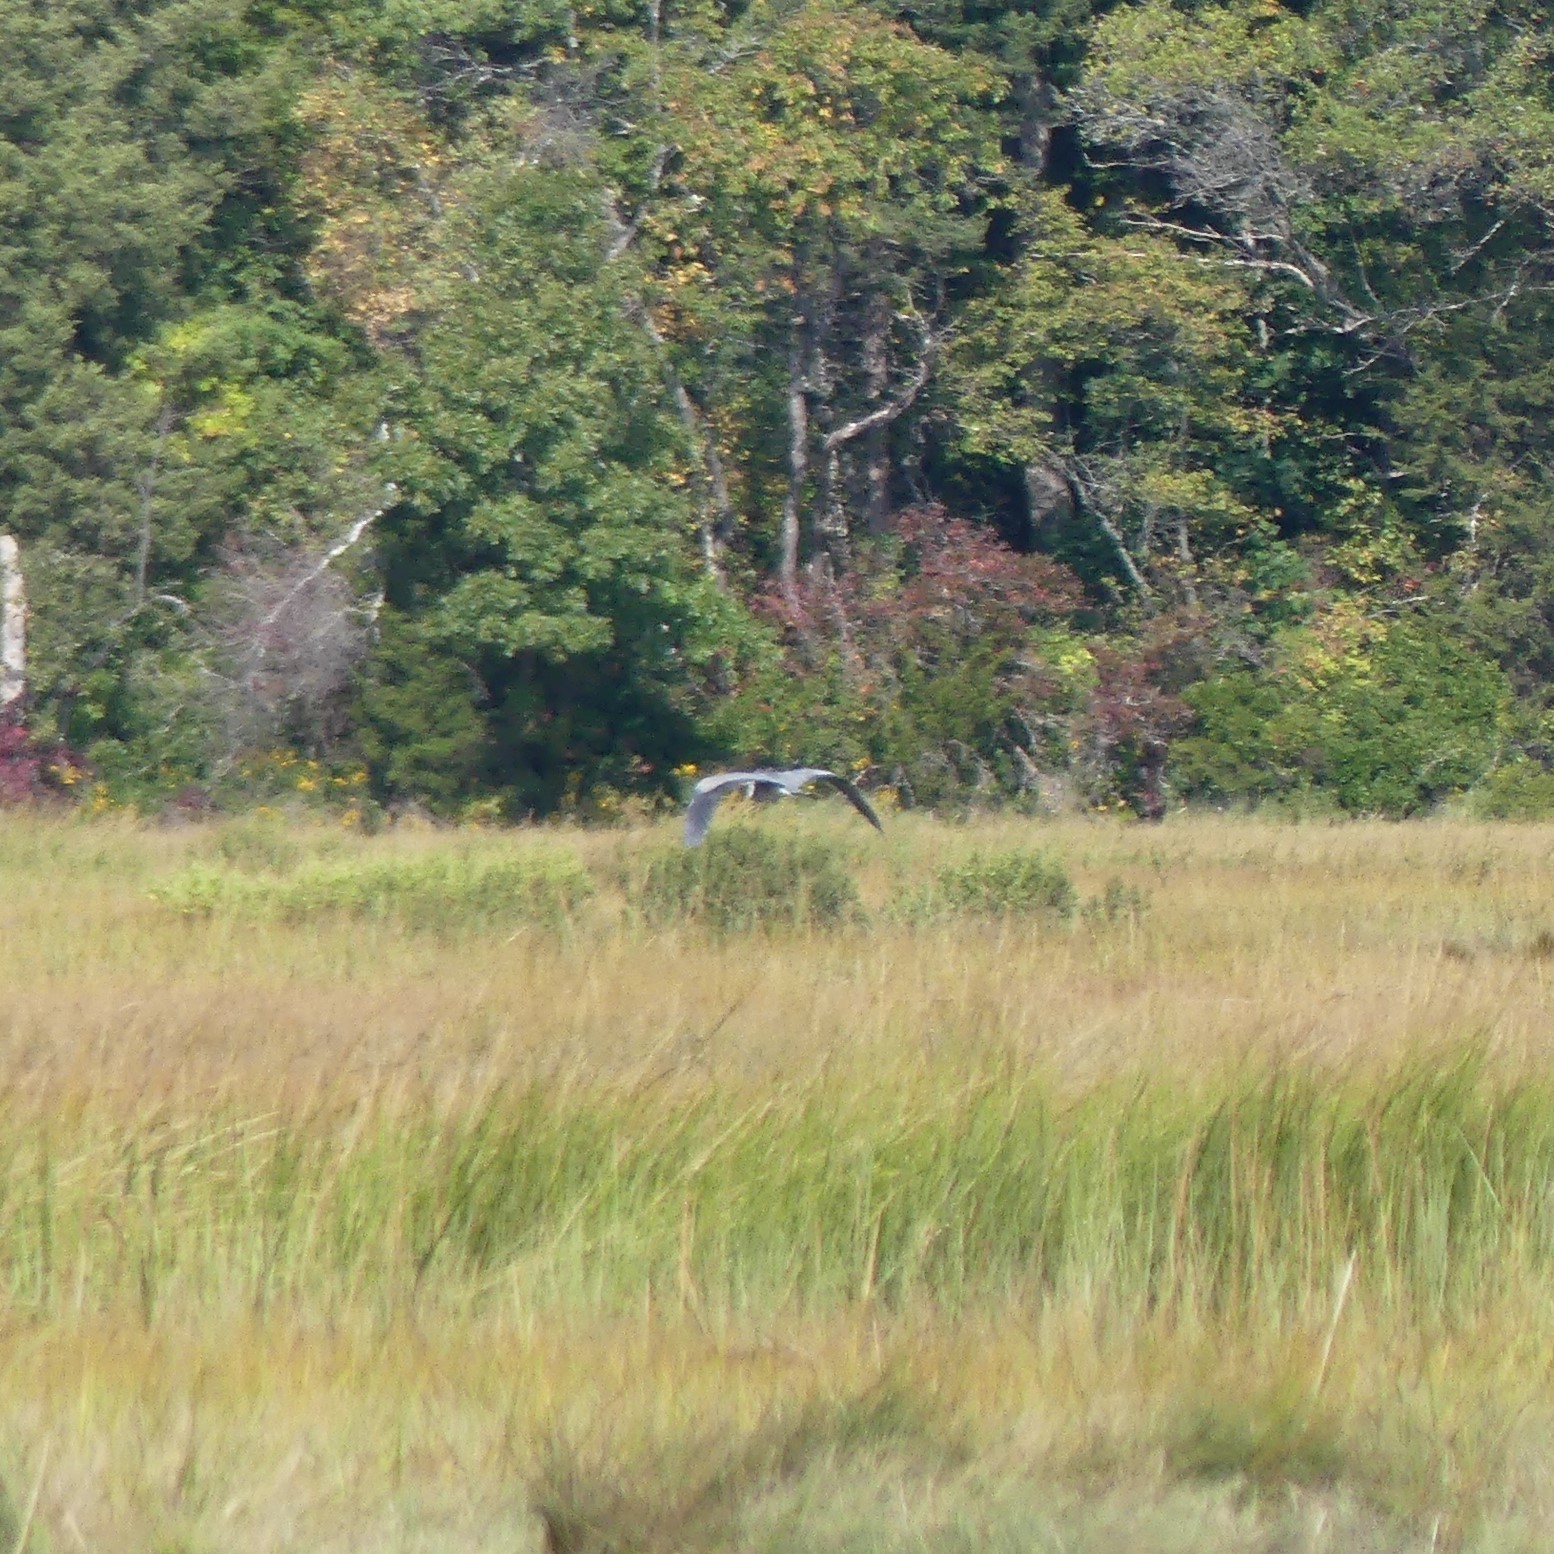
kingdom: Animalia
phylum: Chordata
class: Aves
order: Pelecaniformes
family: Ardeidae
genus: Ardea
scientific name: Ardea herodias
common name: Great blue heron
